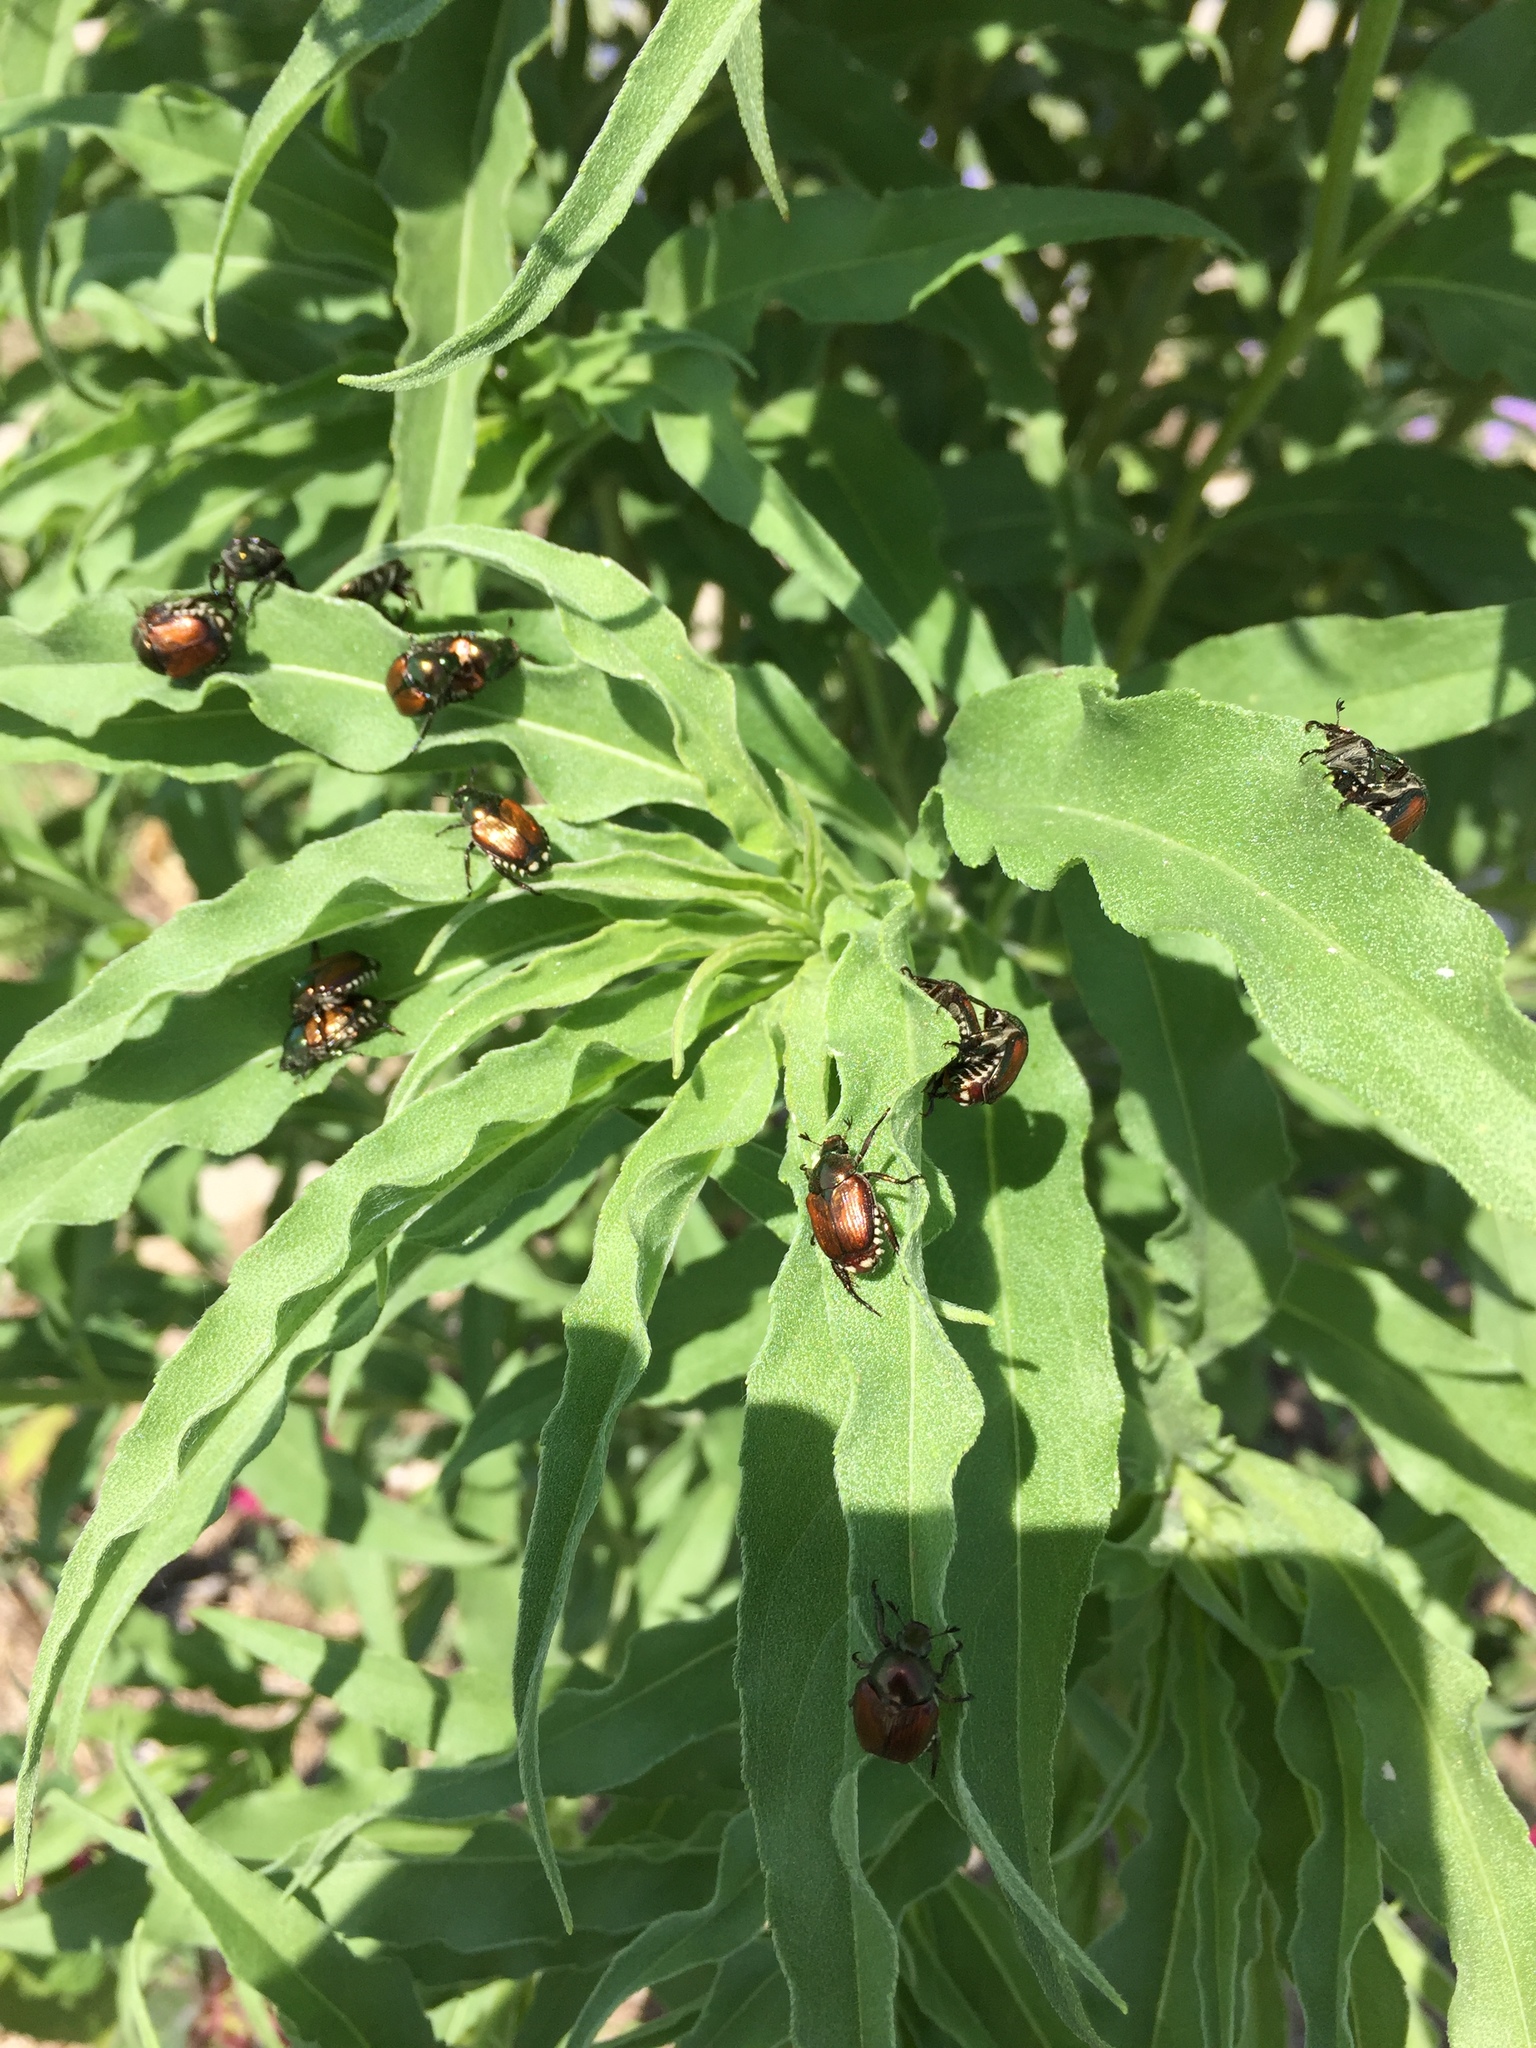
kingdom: Animalia
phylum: Arthropoda
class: Insecta
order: Coleoptera
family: Scarabaeidae
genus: Popillia
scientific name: Popillia japonica
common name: Japanese beetle
